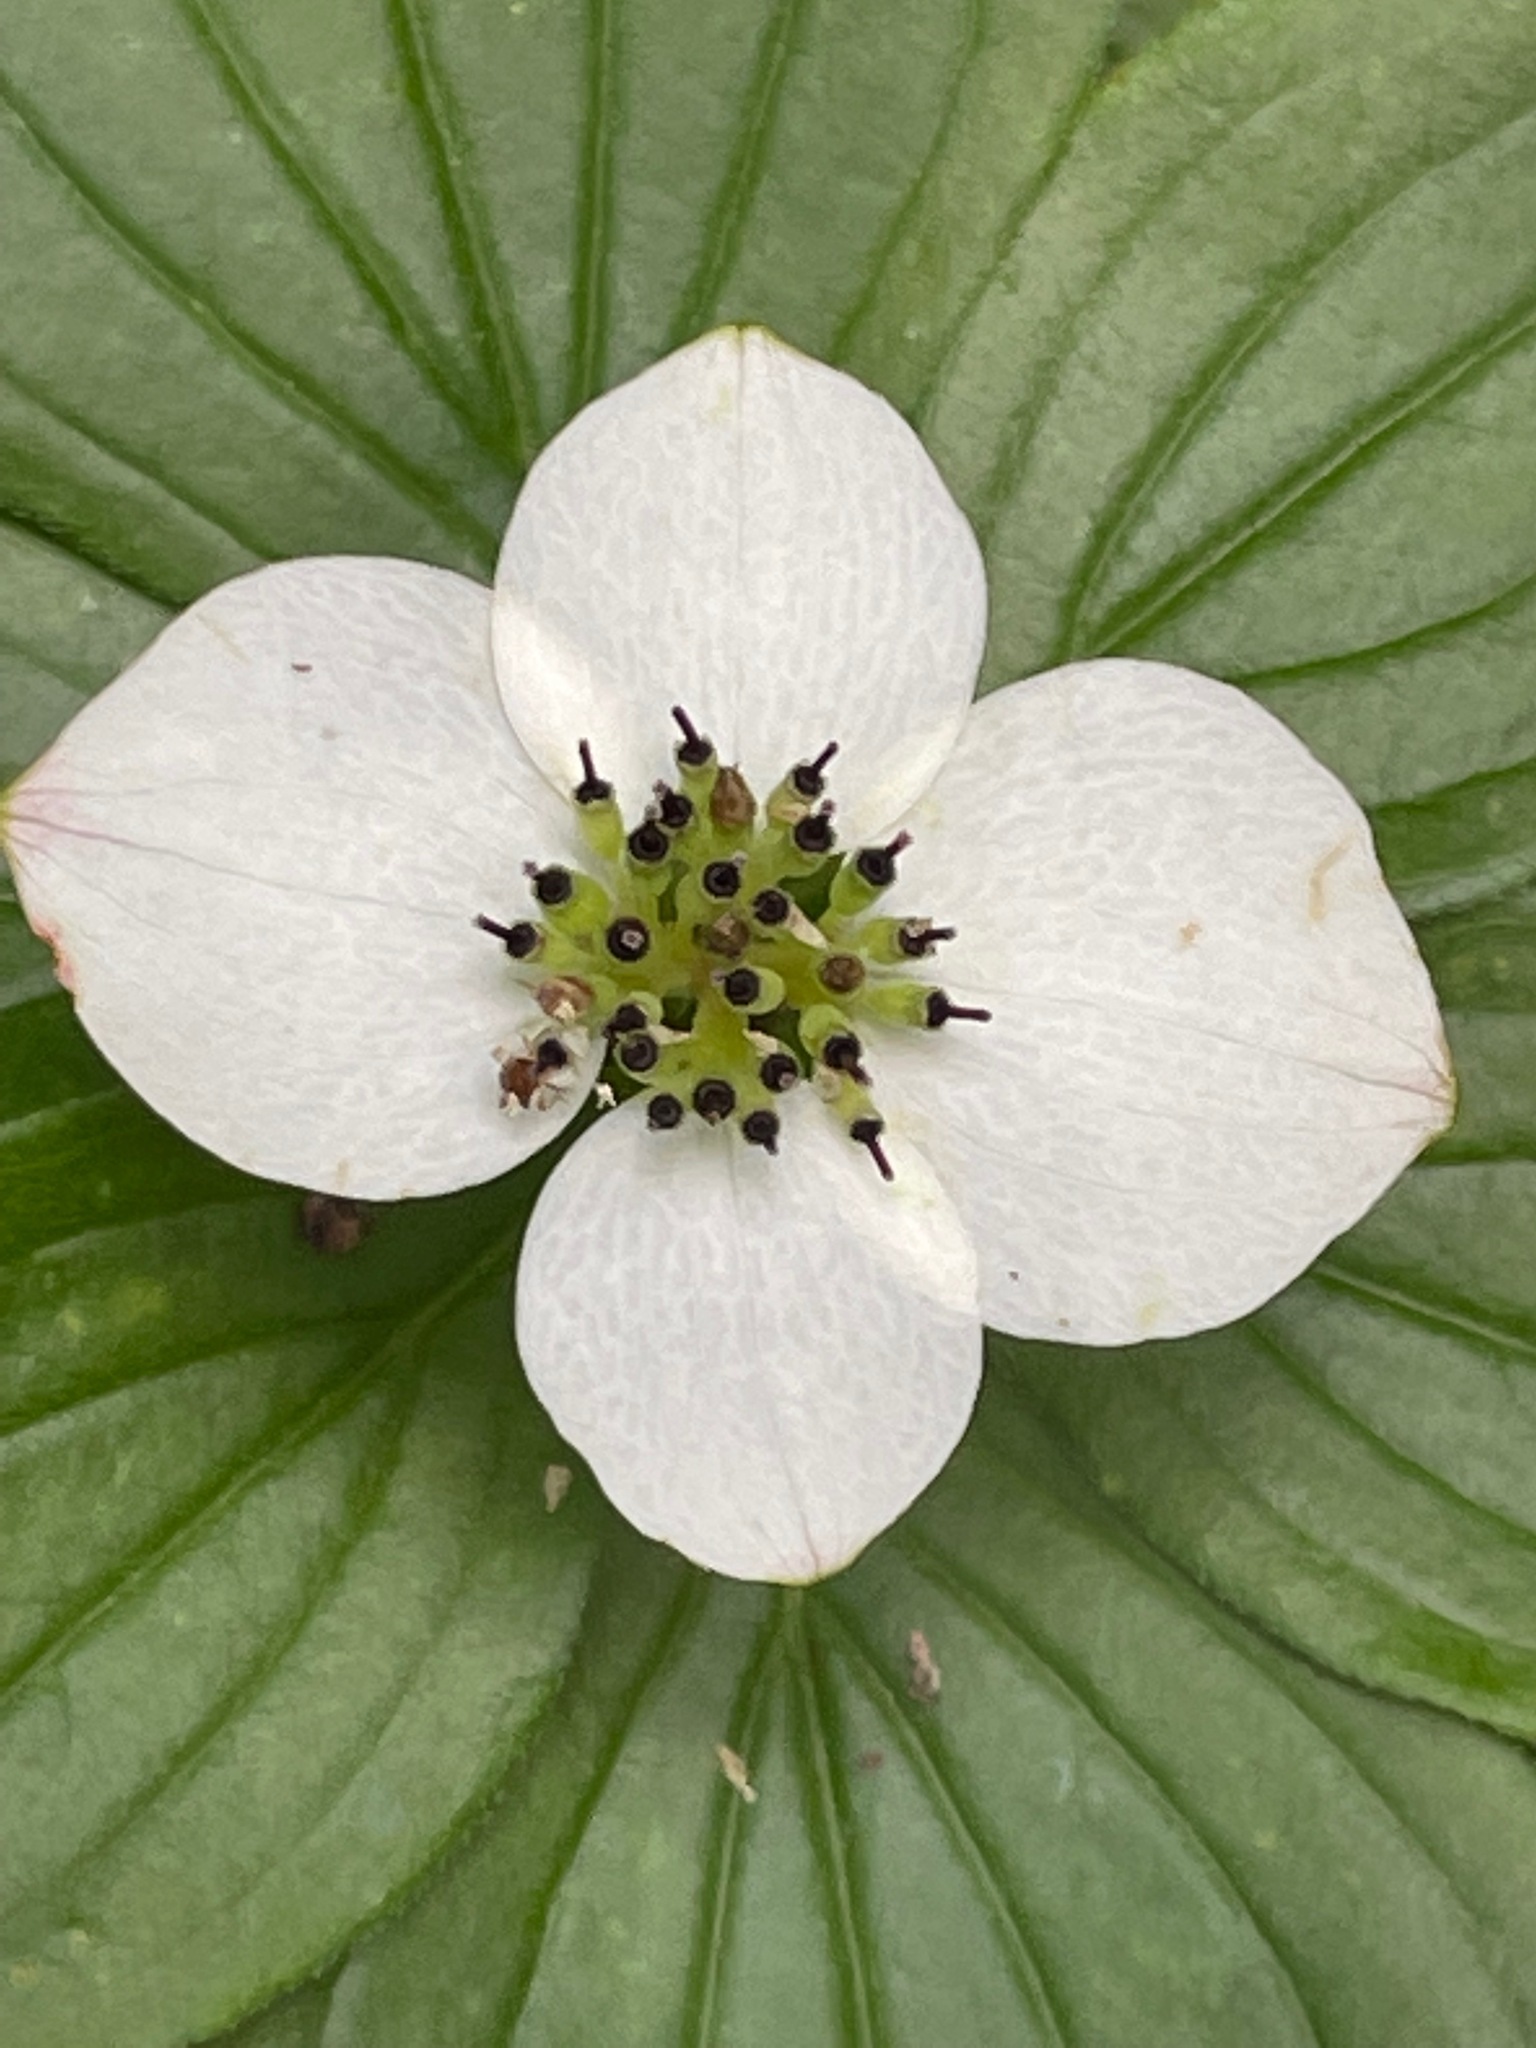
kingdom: Plantae
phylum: Tracheophyta
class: Magnoliopsida
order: Cornales
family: Cornaceae
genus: Cornus
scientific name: Cornus canadensis
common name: Creeping dogwood
